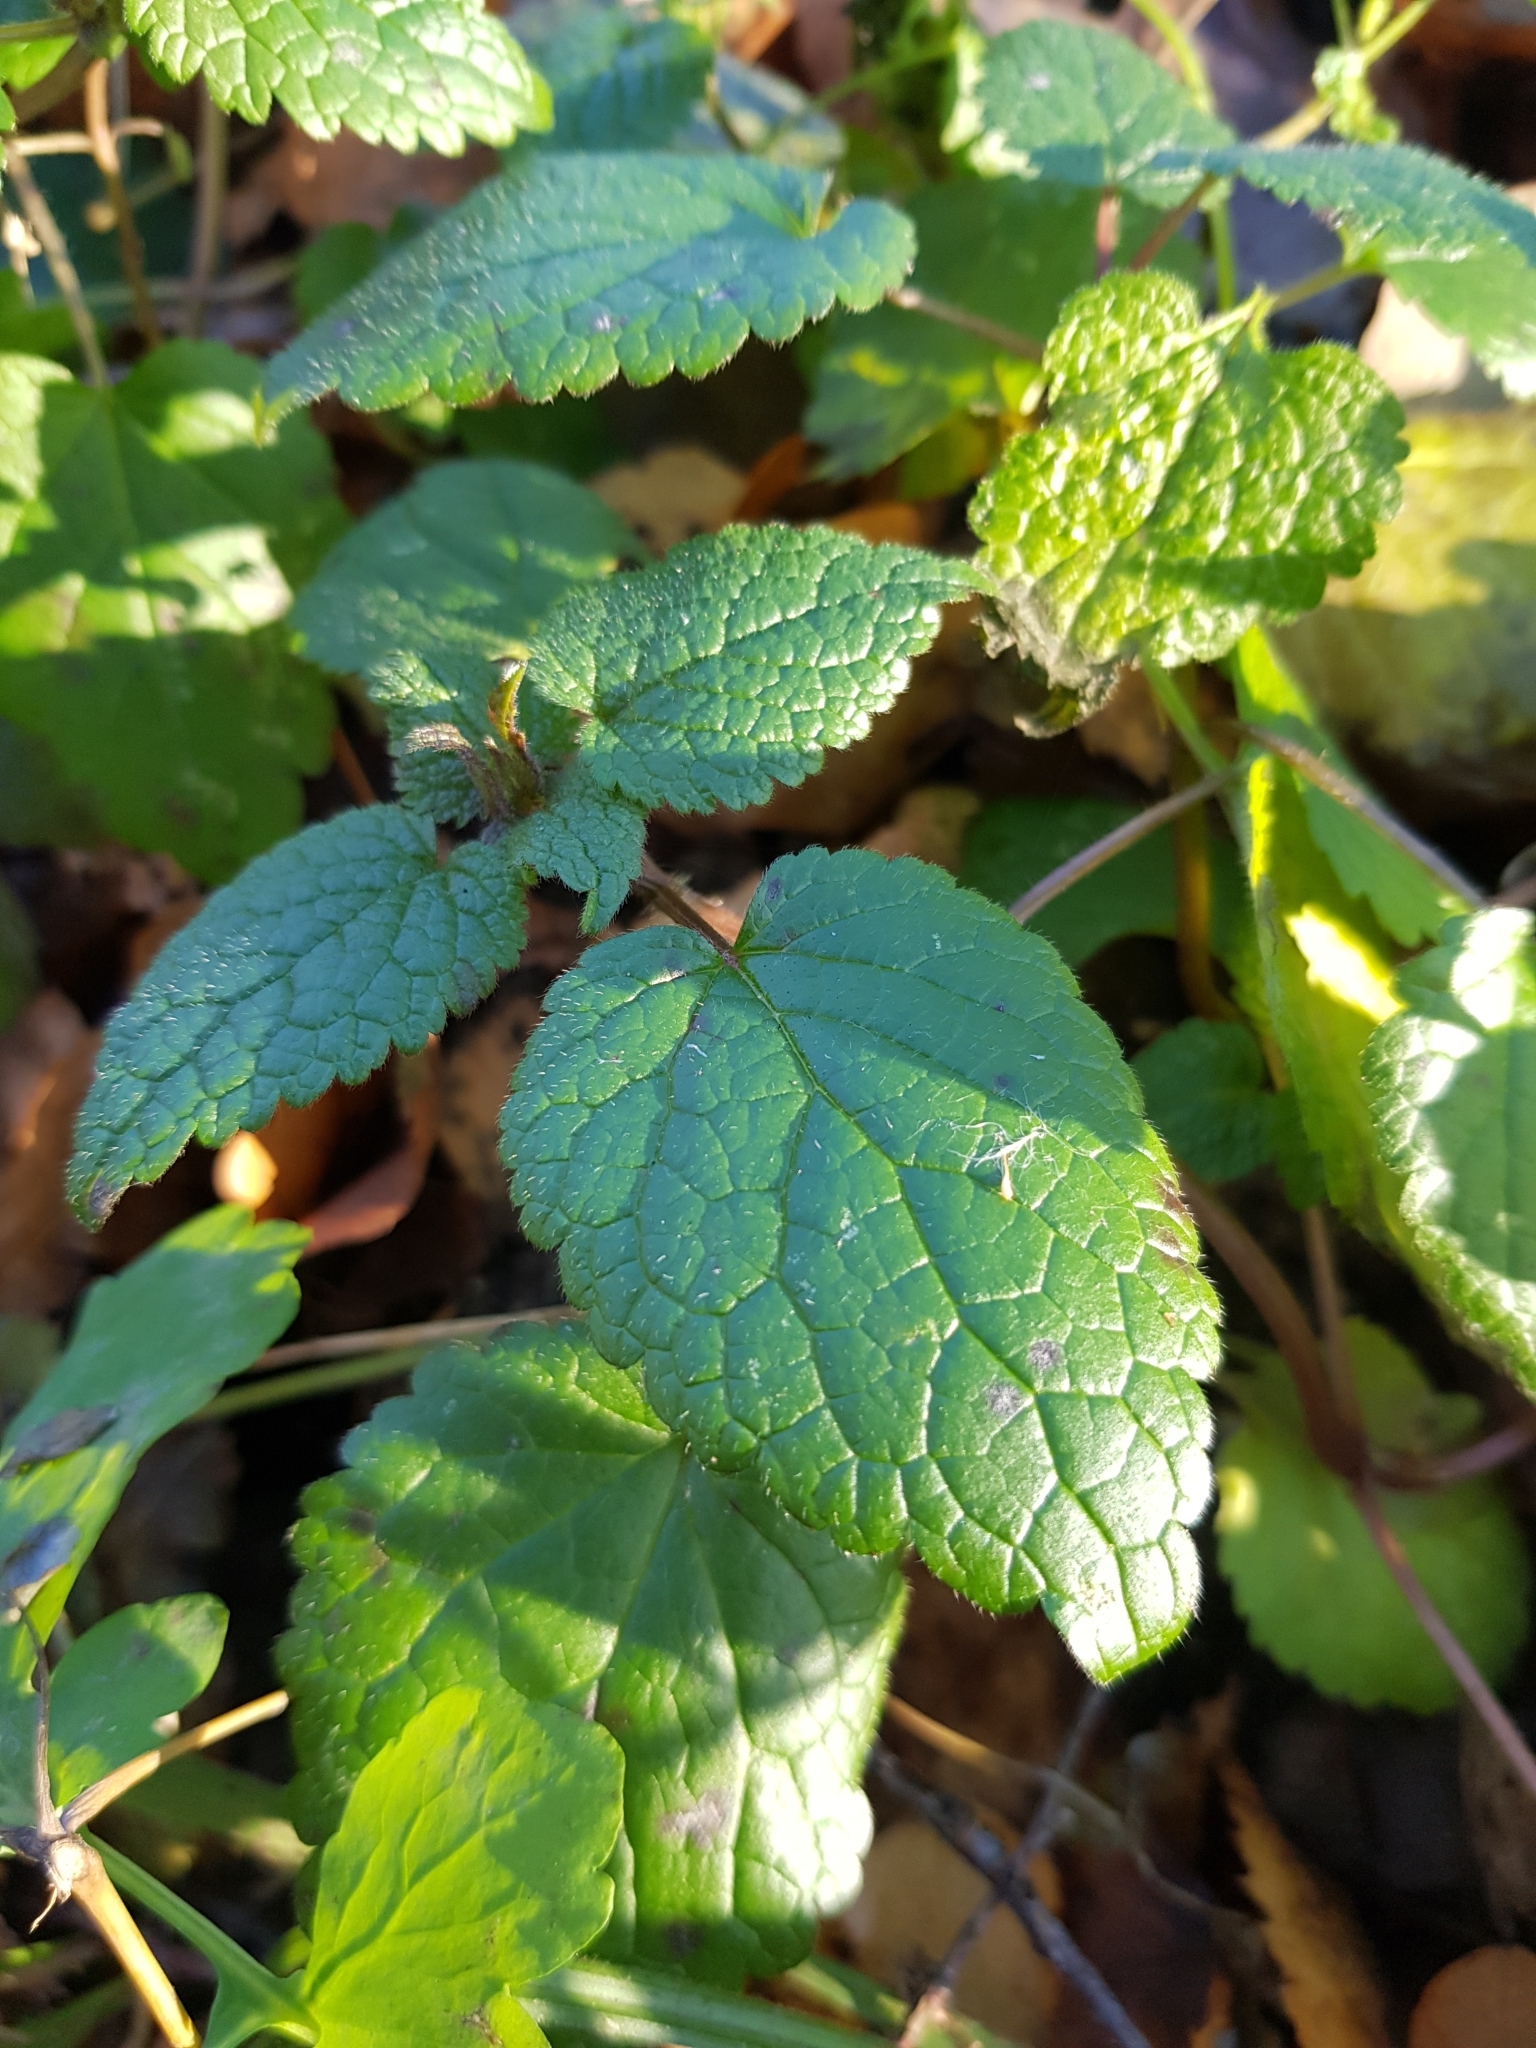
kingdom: Plantae
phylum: Tracheophyta
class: Magnoliopsida
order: Lamiales
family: Lamiaceae
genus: Lamium
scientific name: Lamium maculatum
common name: Spotted dead-nettle
